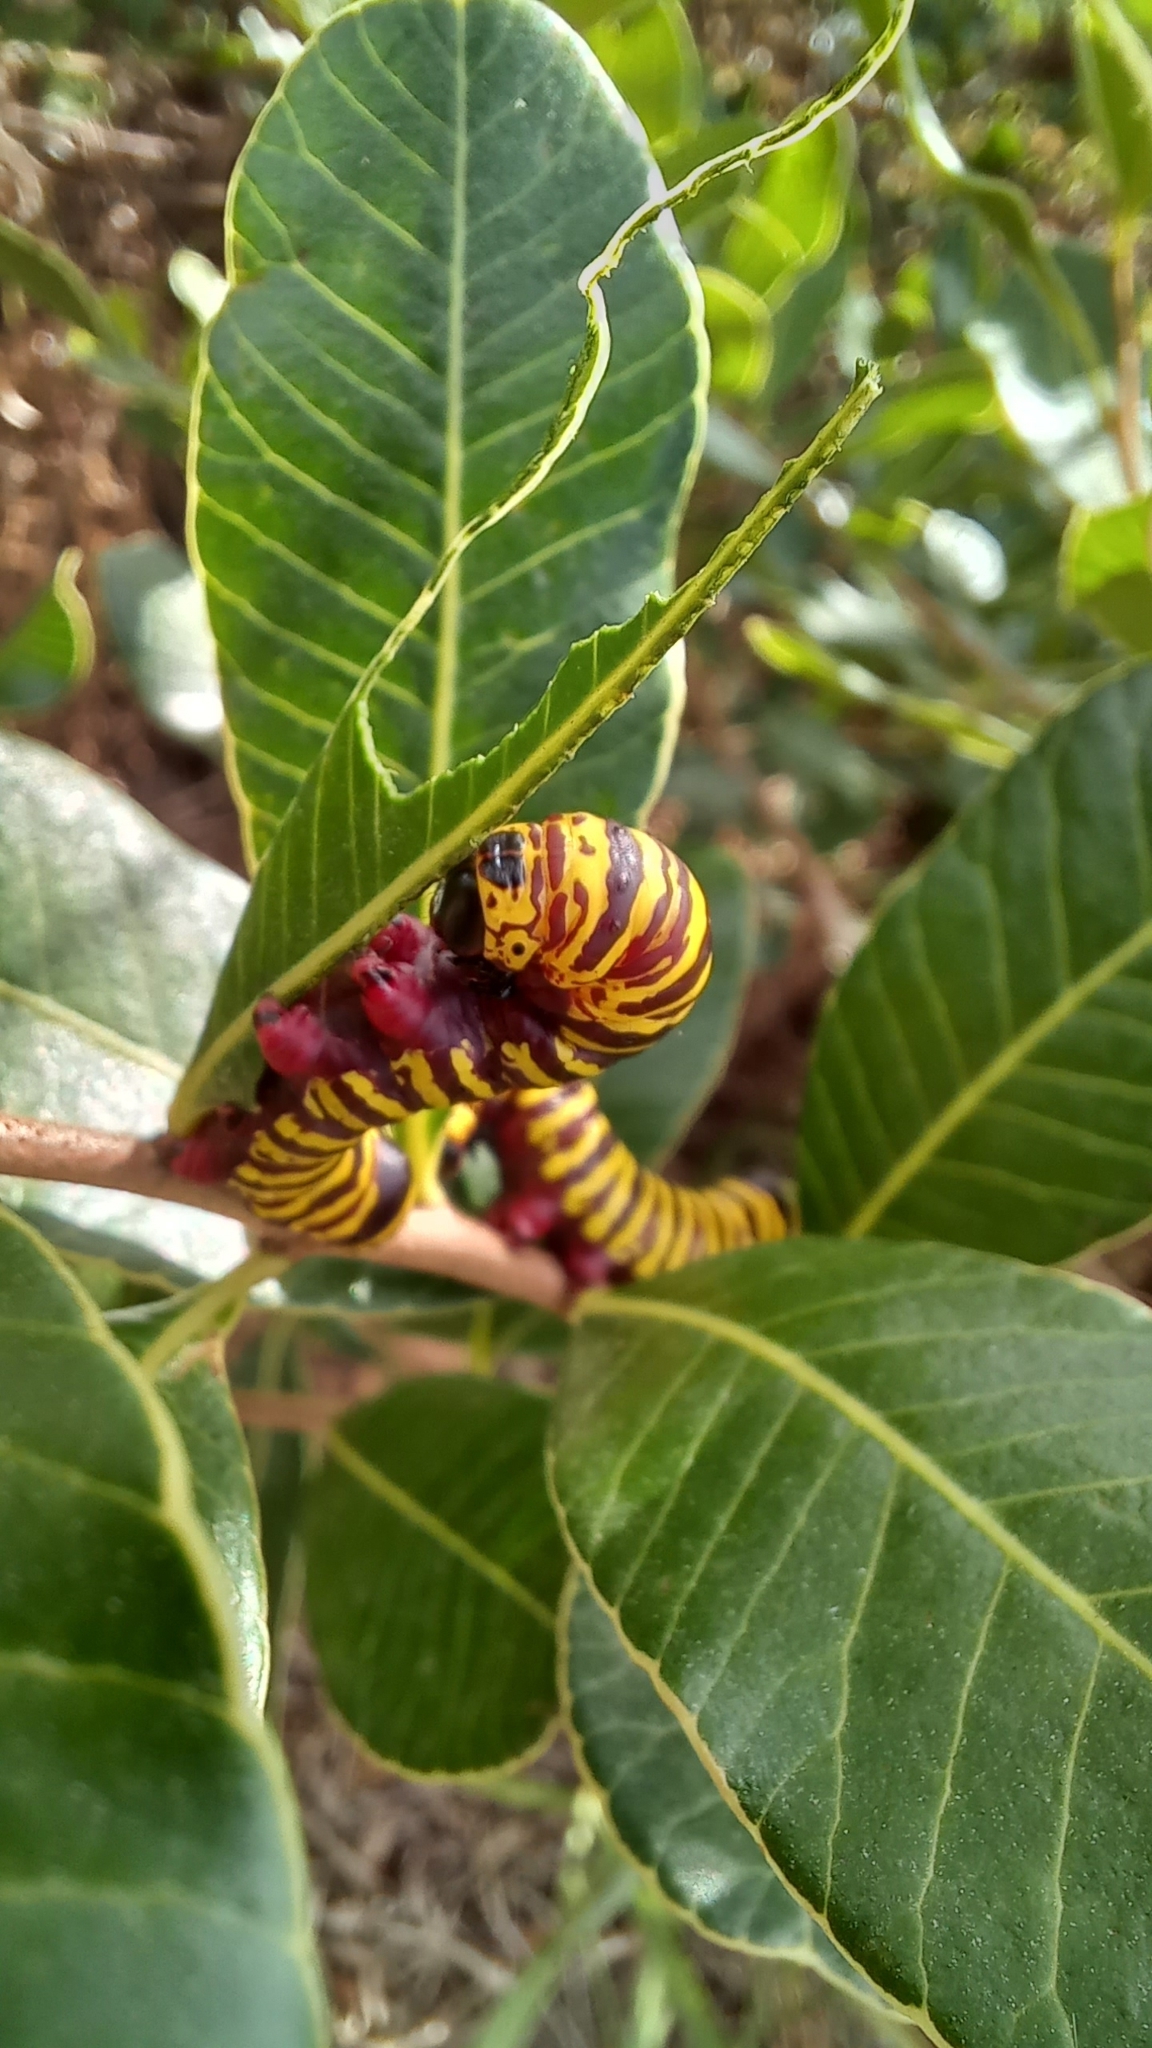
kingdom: Animalia
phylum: Arthropoda
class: Insecta
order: Lepidoptera
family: Notodontidae
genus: Tecmessa
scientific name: Tecmessa elegans
